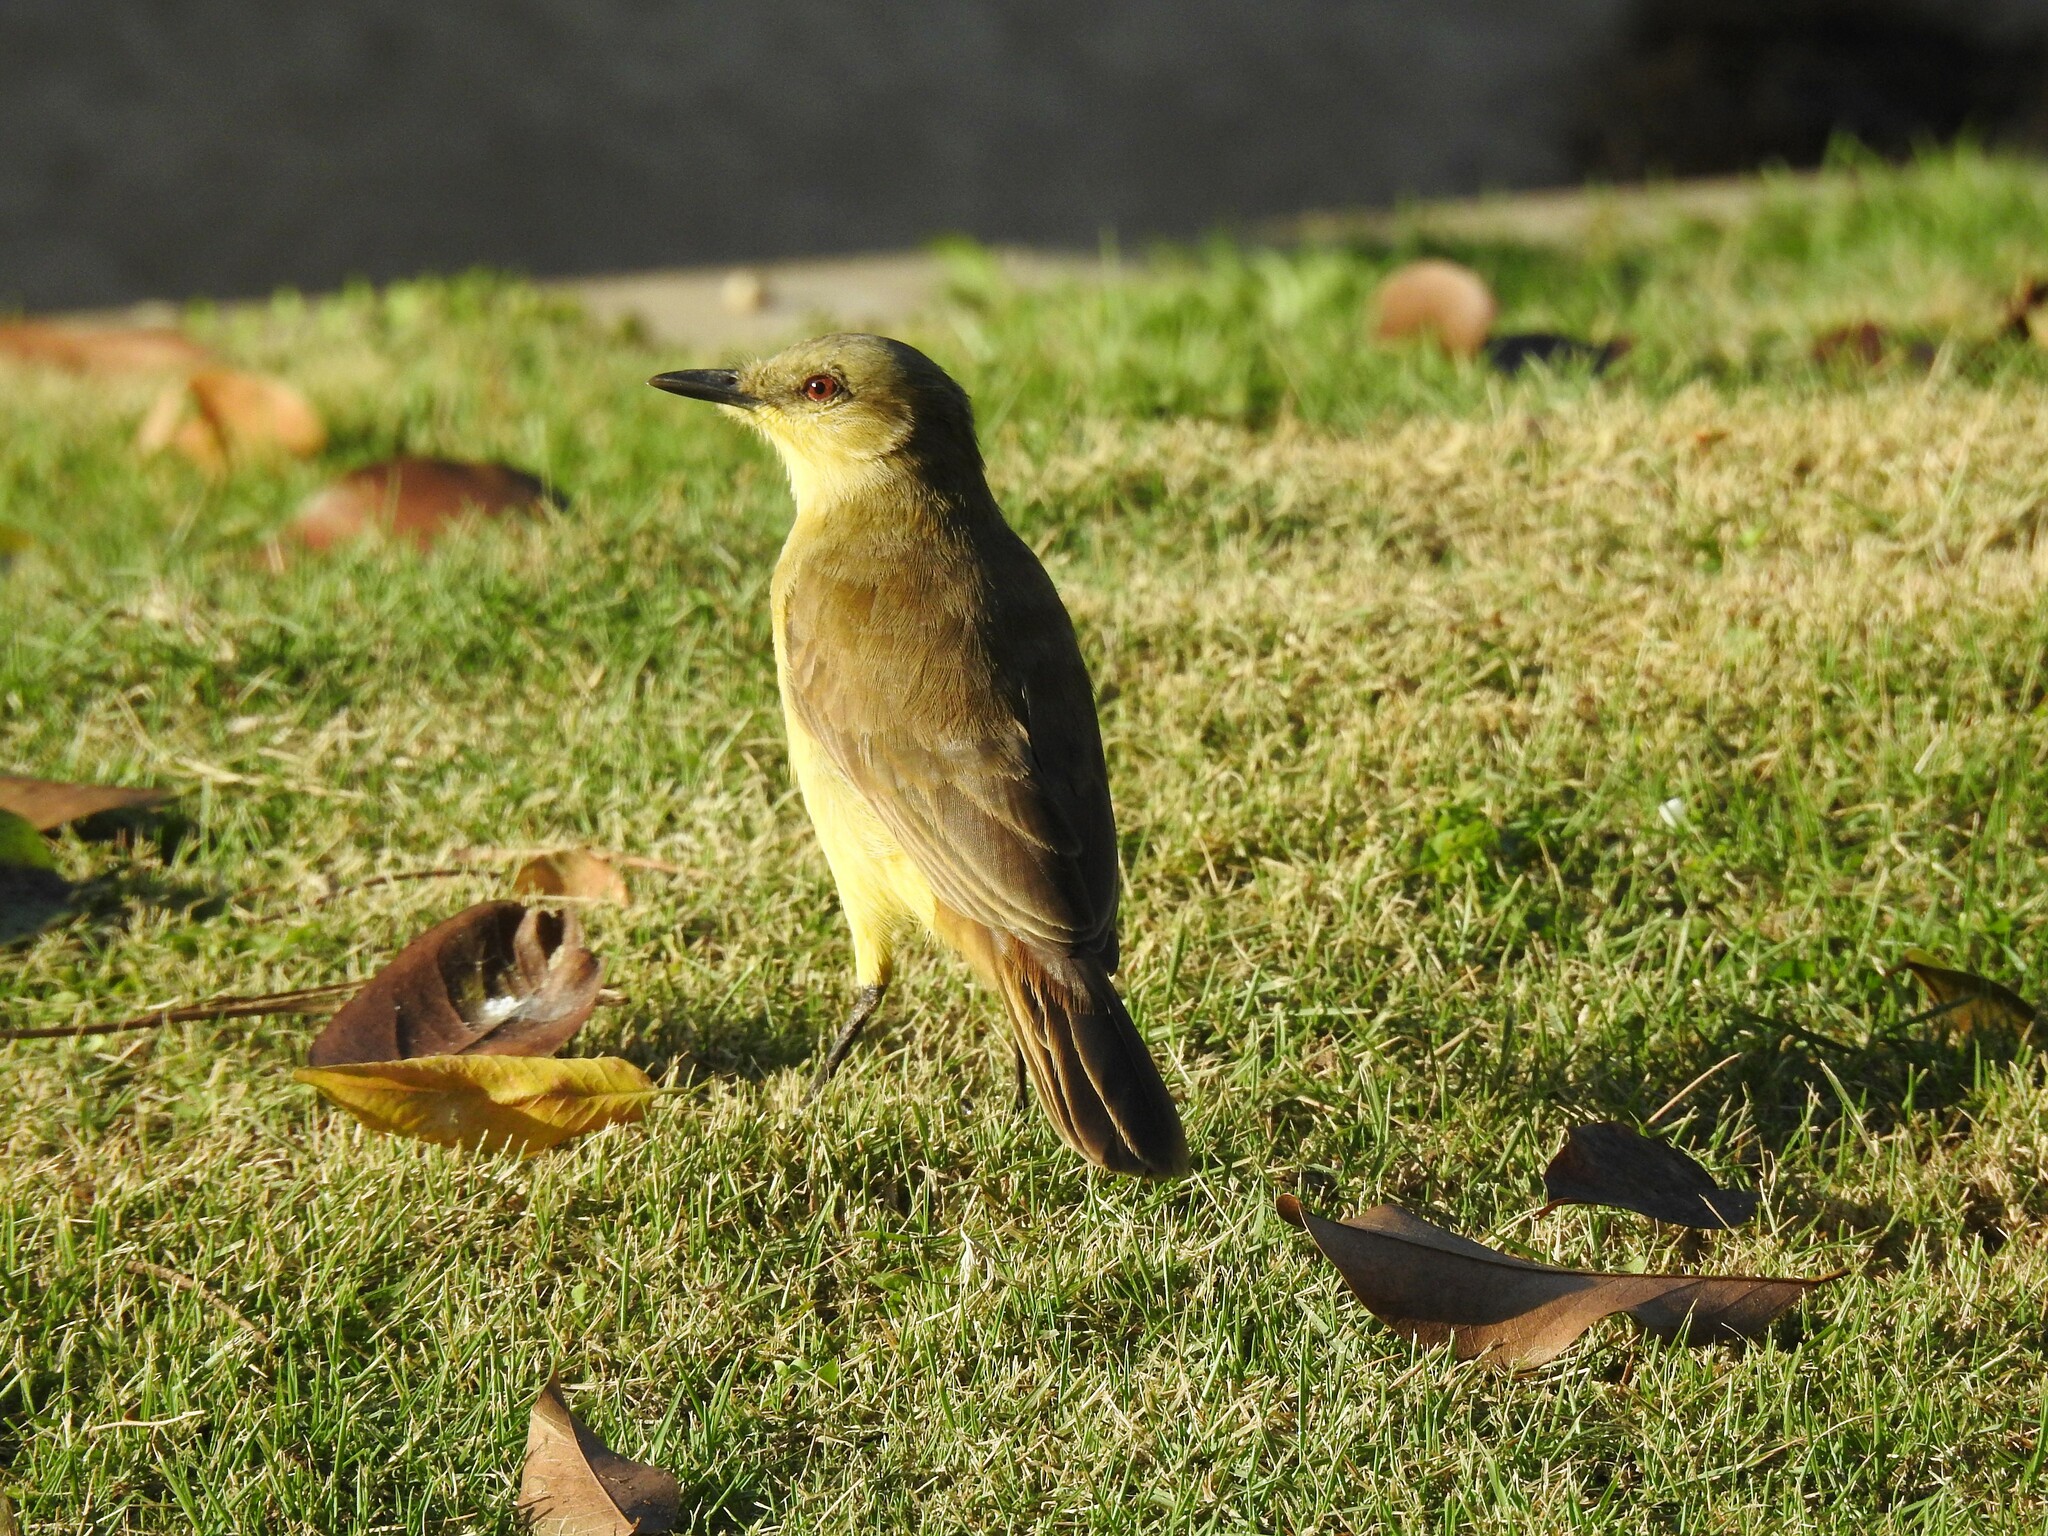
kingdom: Animalia
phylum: Chordata
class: Aves
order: Passeriformes
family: Tyrannidae
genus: Machetornis
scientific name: Machetornis rixosa
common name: Cattle tyrant
